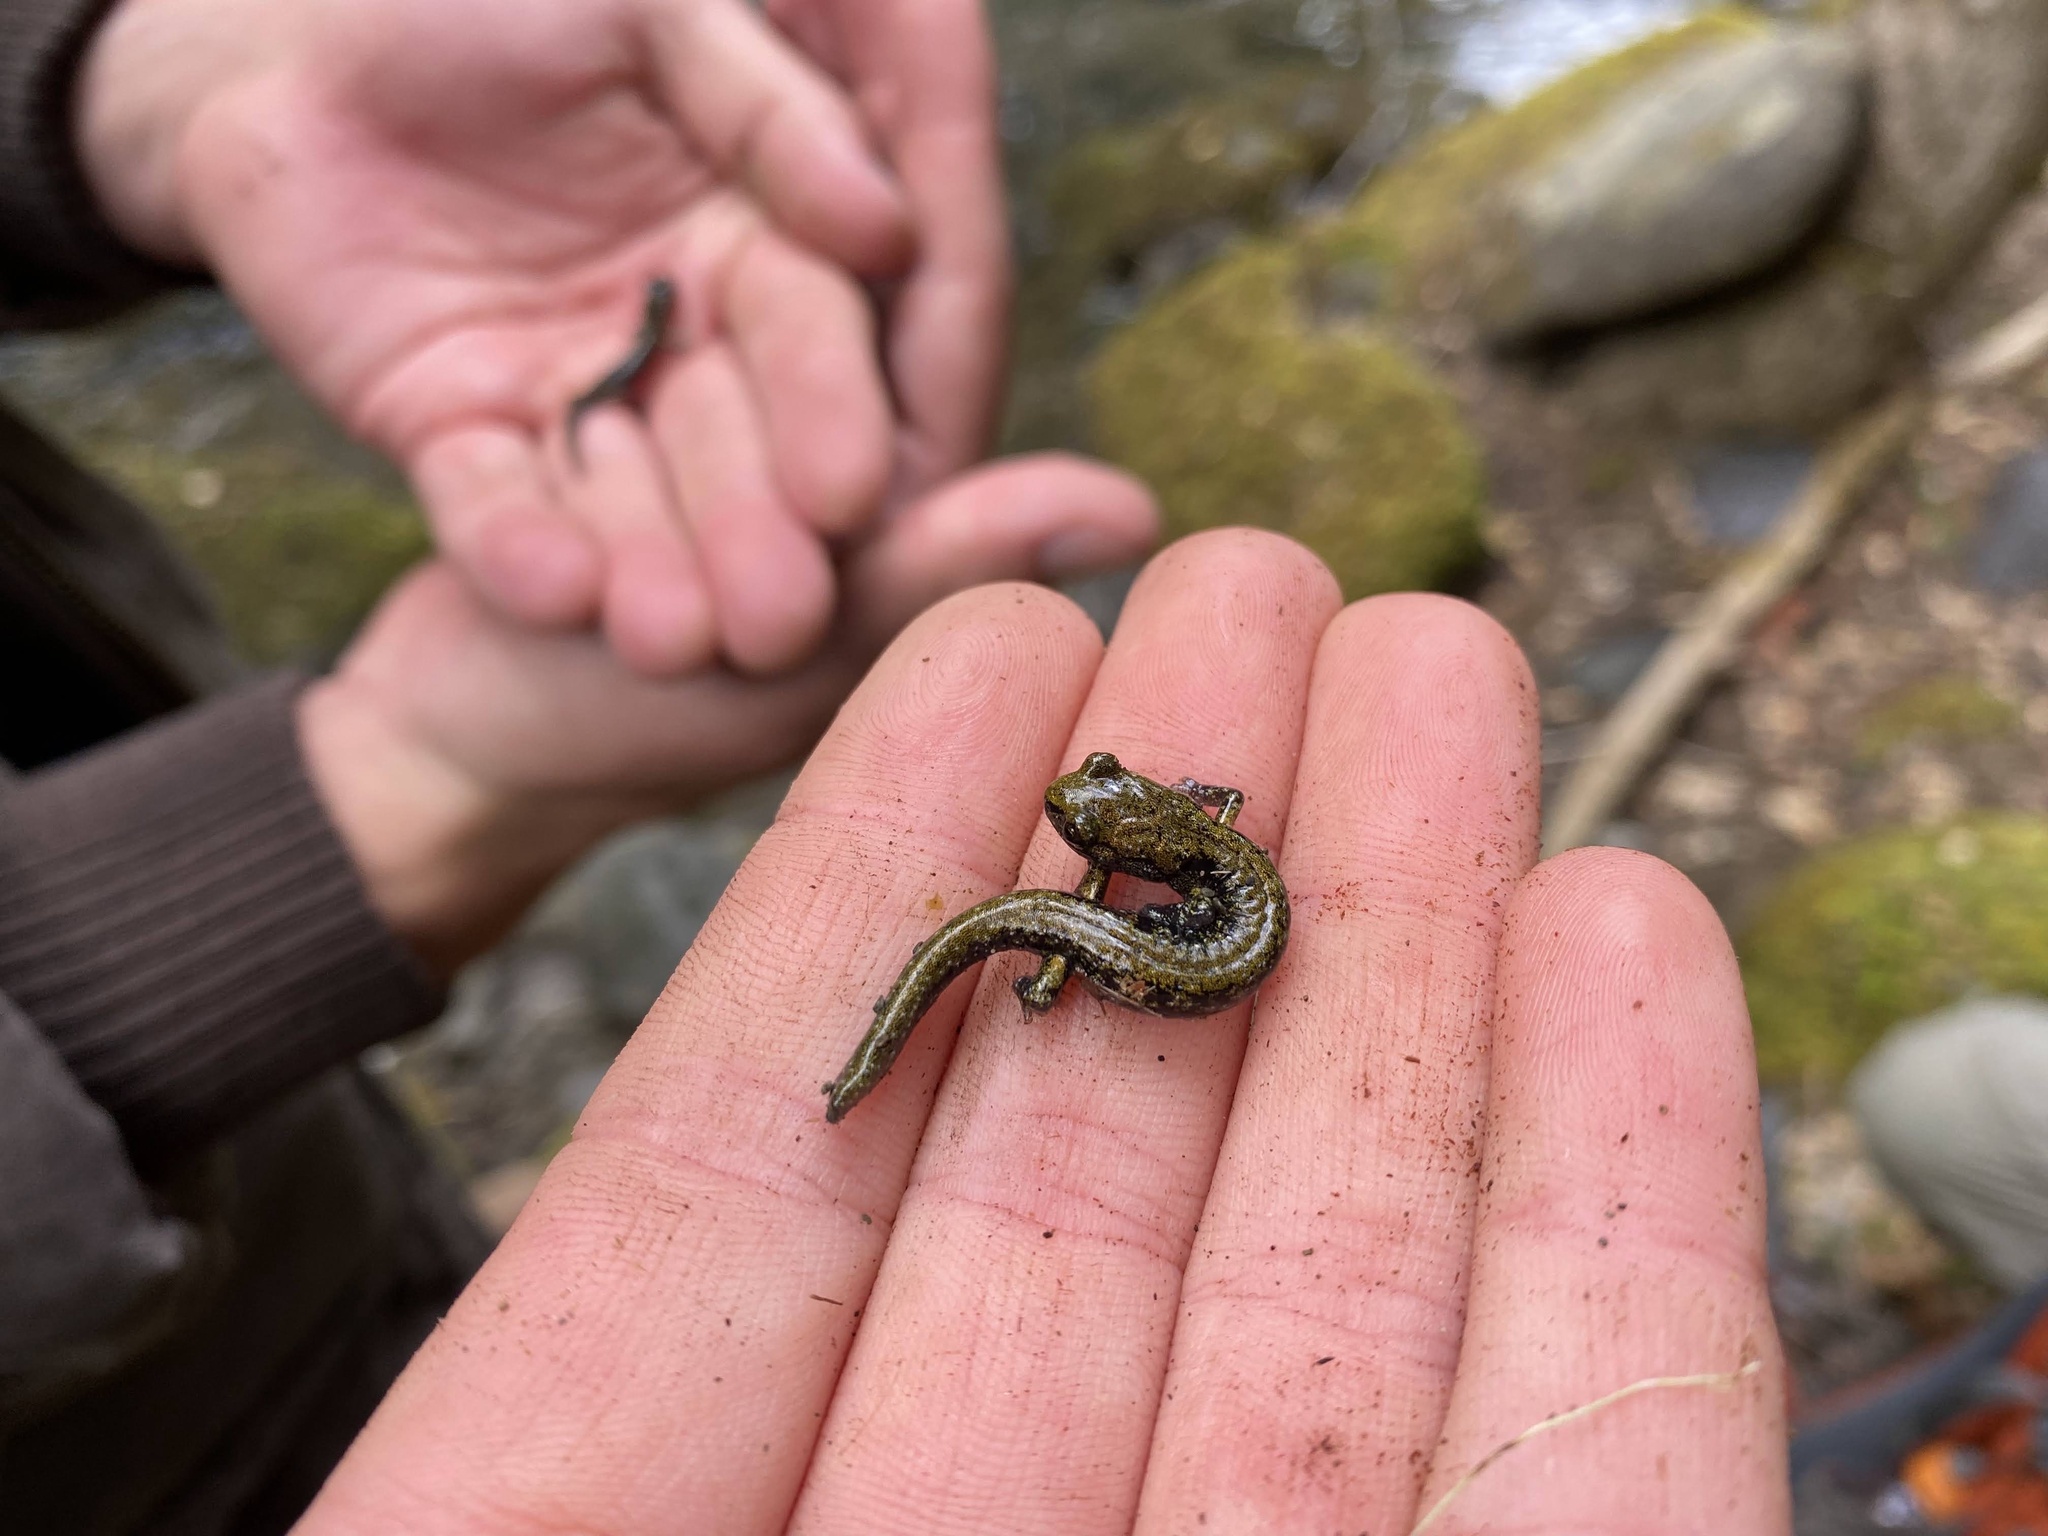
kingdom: Animalia
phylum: Chordata
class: Amphibia
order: Caudata
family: Plethodontidae
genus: Aneides
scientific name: Aneides flavipunctatus
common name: Black salamander
